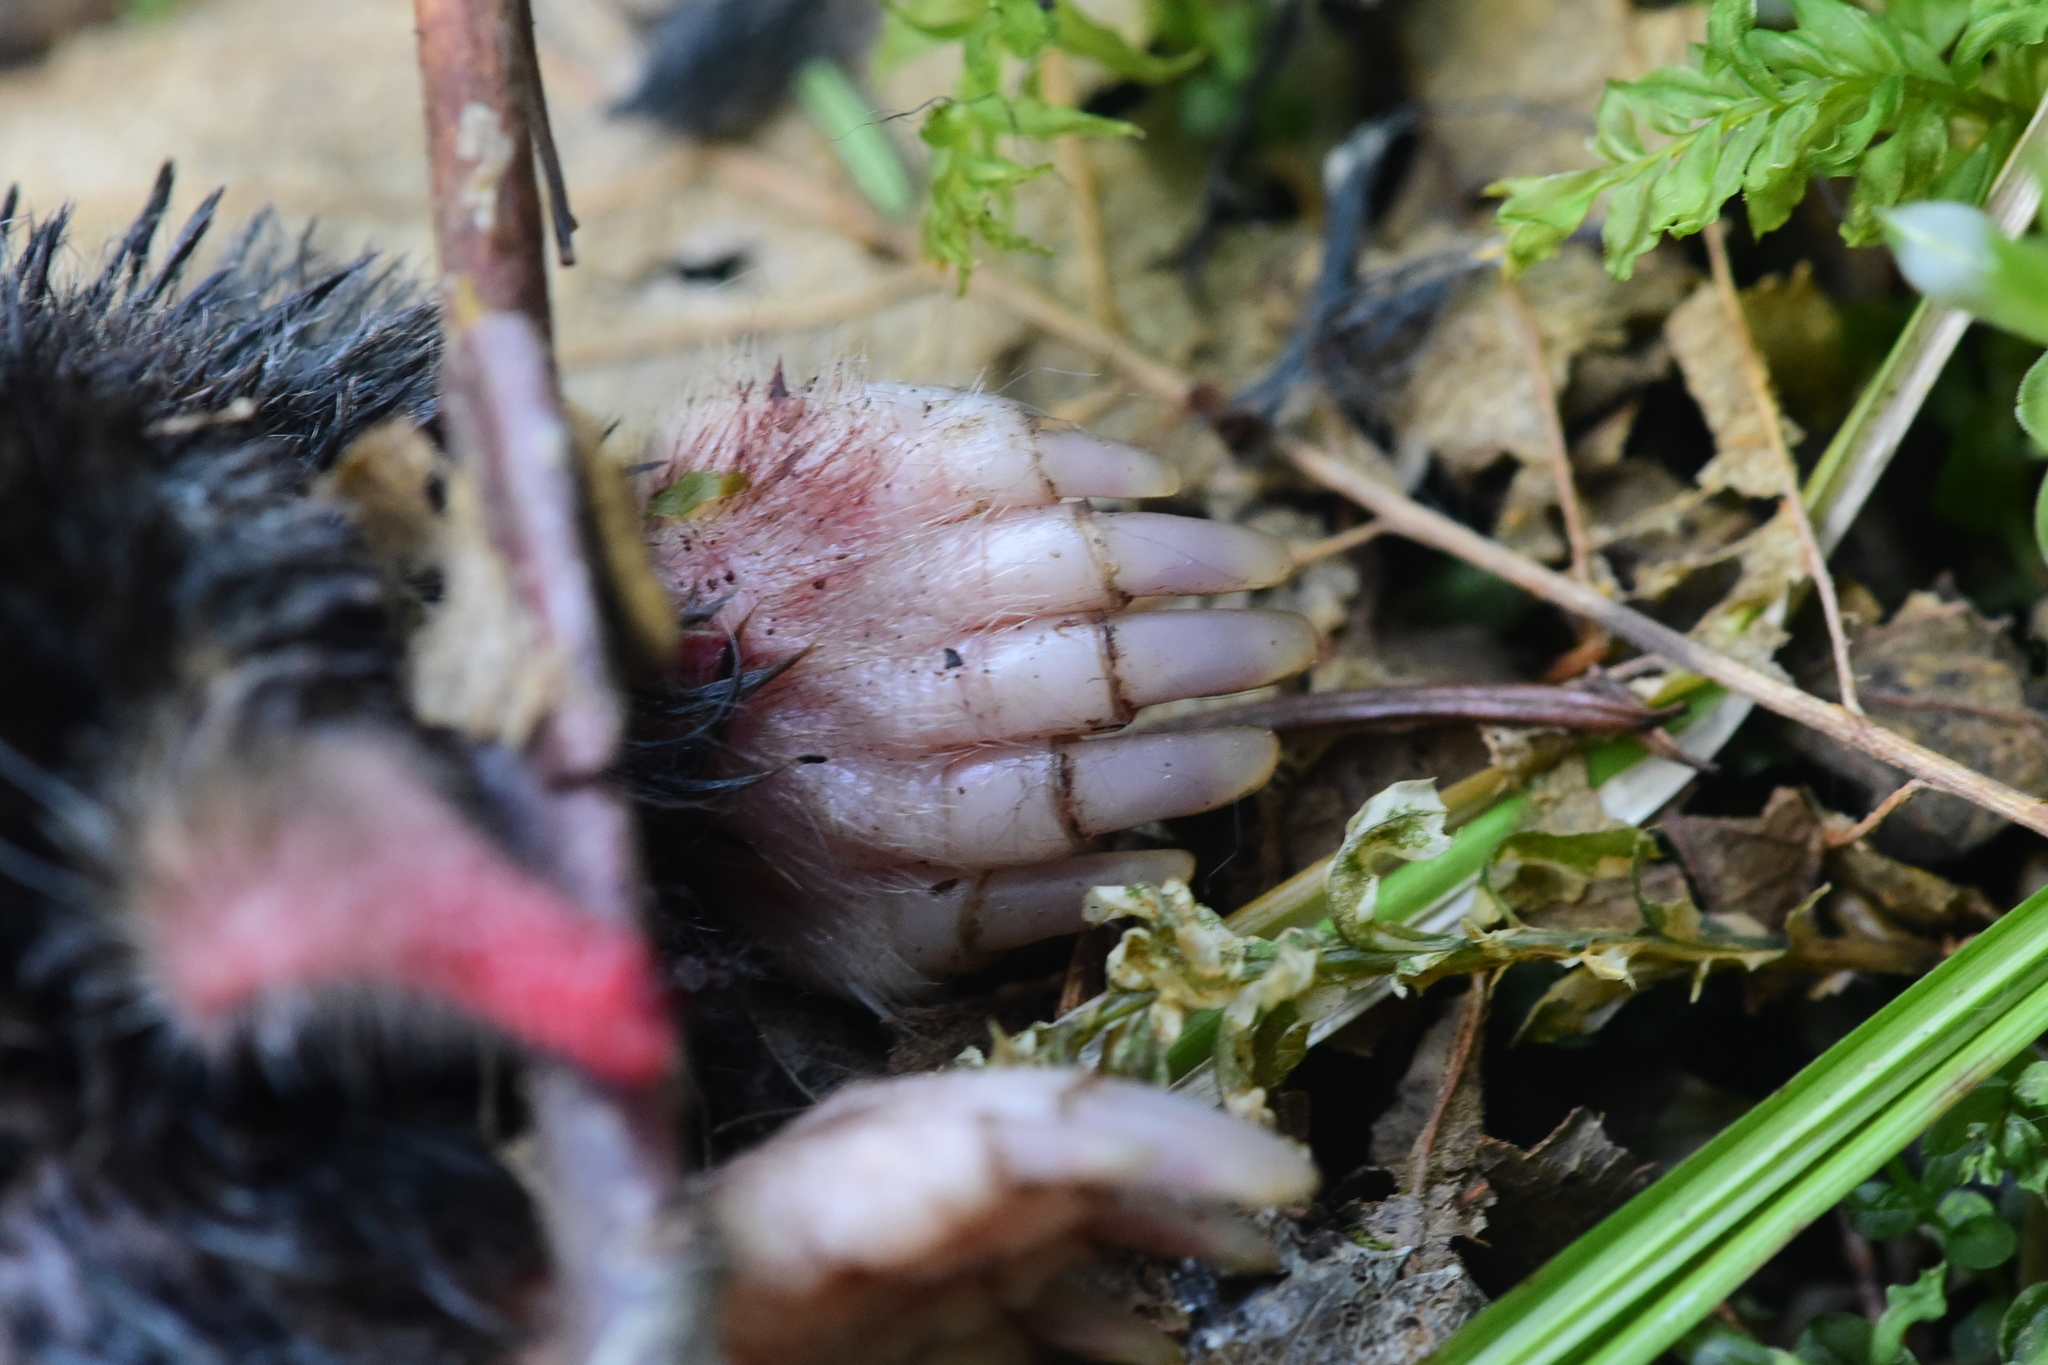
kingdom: Animalia
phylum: Chordata
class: Mammalia
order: Soricomorpha
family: Talpidae
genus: Scapanus
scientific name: Scapanus orarius
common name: Coast mole
